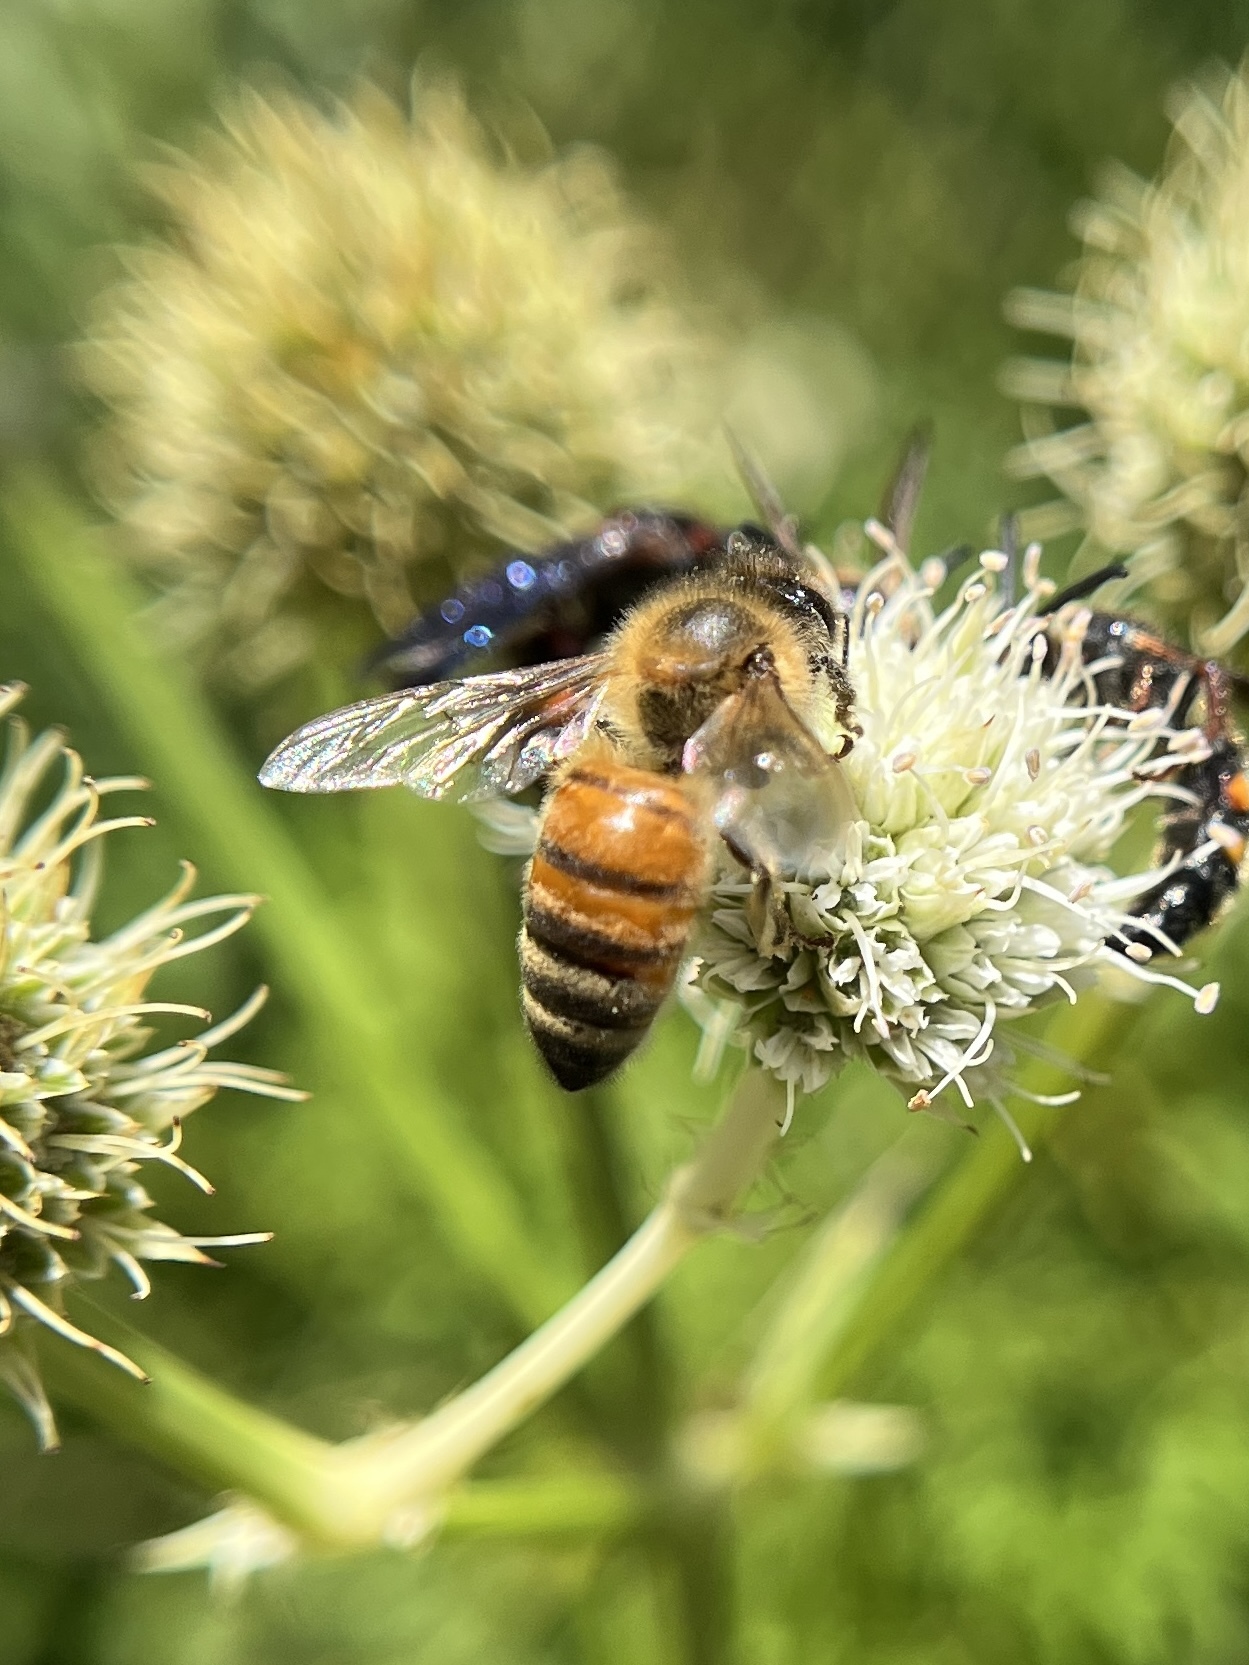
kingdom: Animalia
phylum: Arthropoda
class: Insecta
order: Hymenoptera
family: Apidae
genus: Apis
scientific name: Apis mellifera
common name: Honey bee
